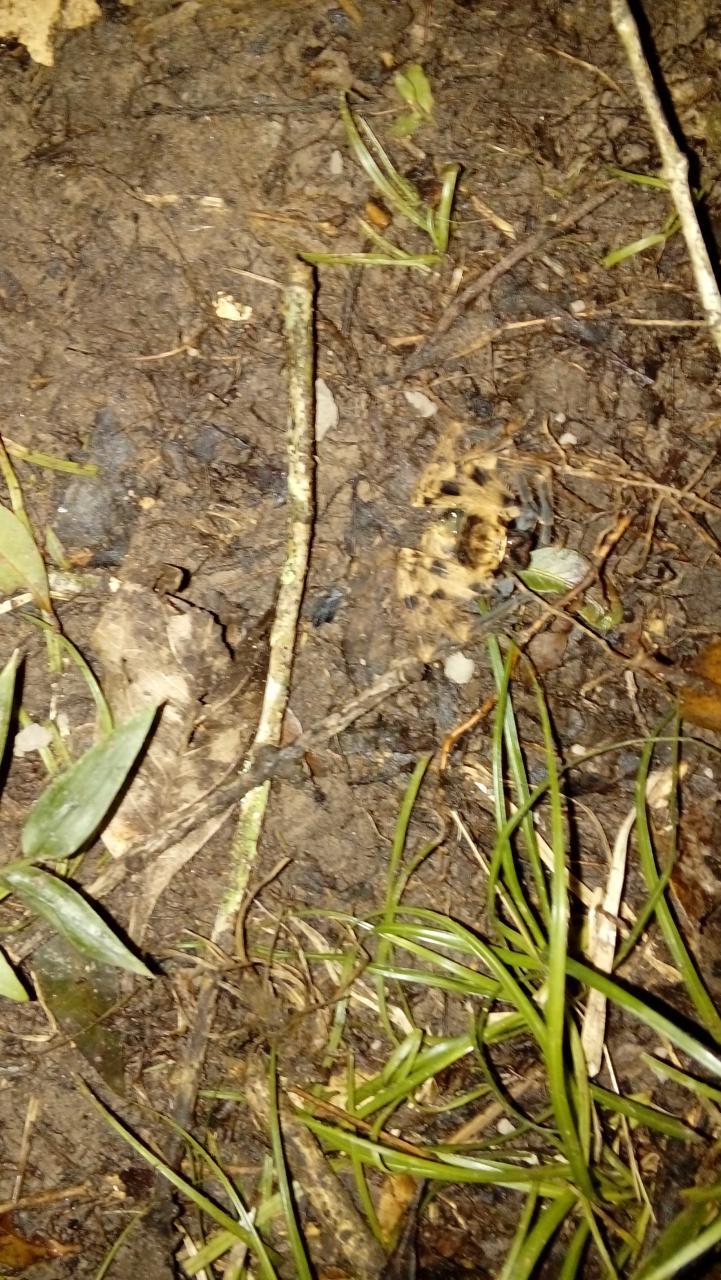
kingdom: Animalia
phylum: Arthropoda
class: Arachnida
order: Araneae
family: Sparassidae
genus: Polybetes
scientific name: Polybetes pythagoricus
